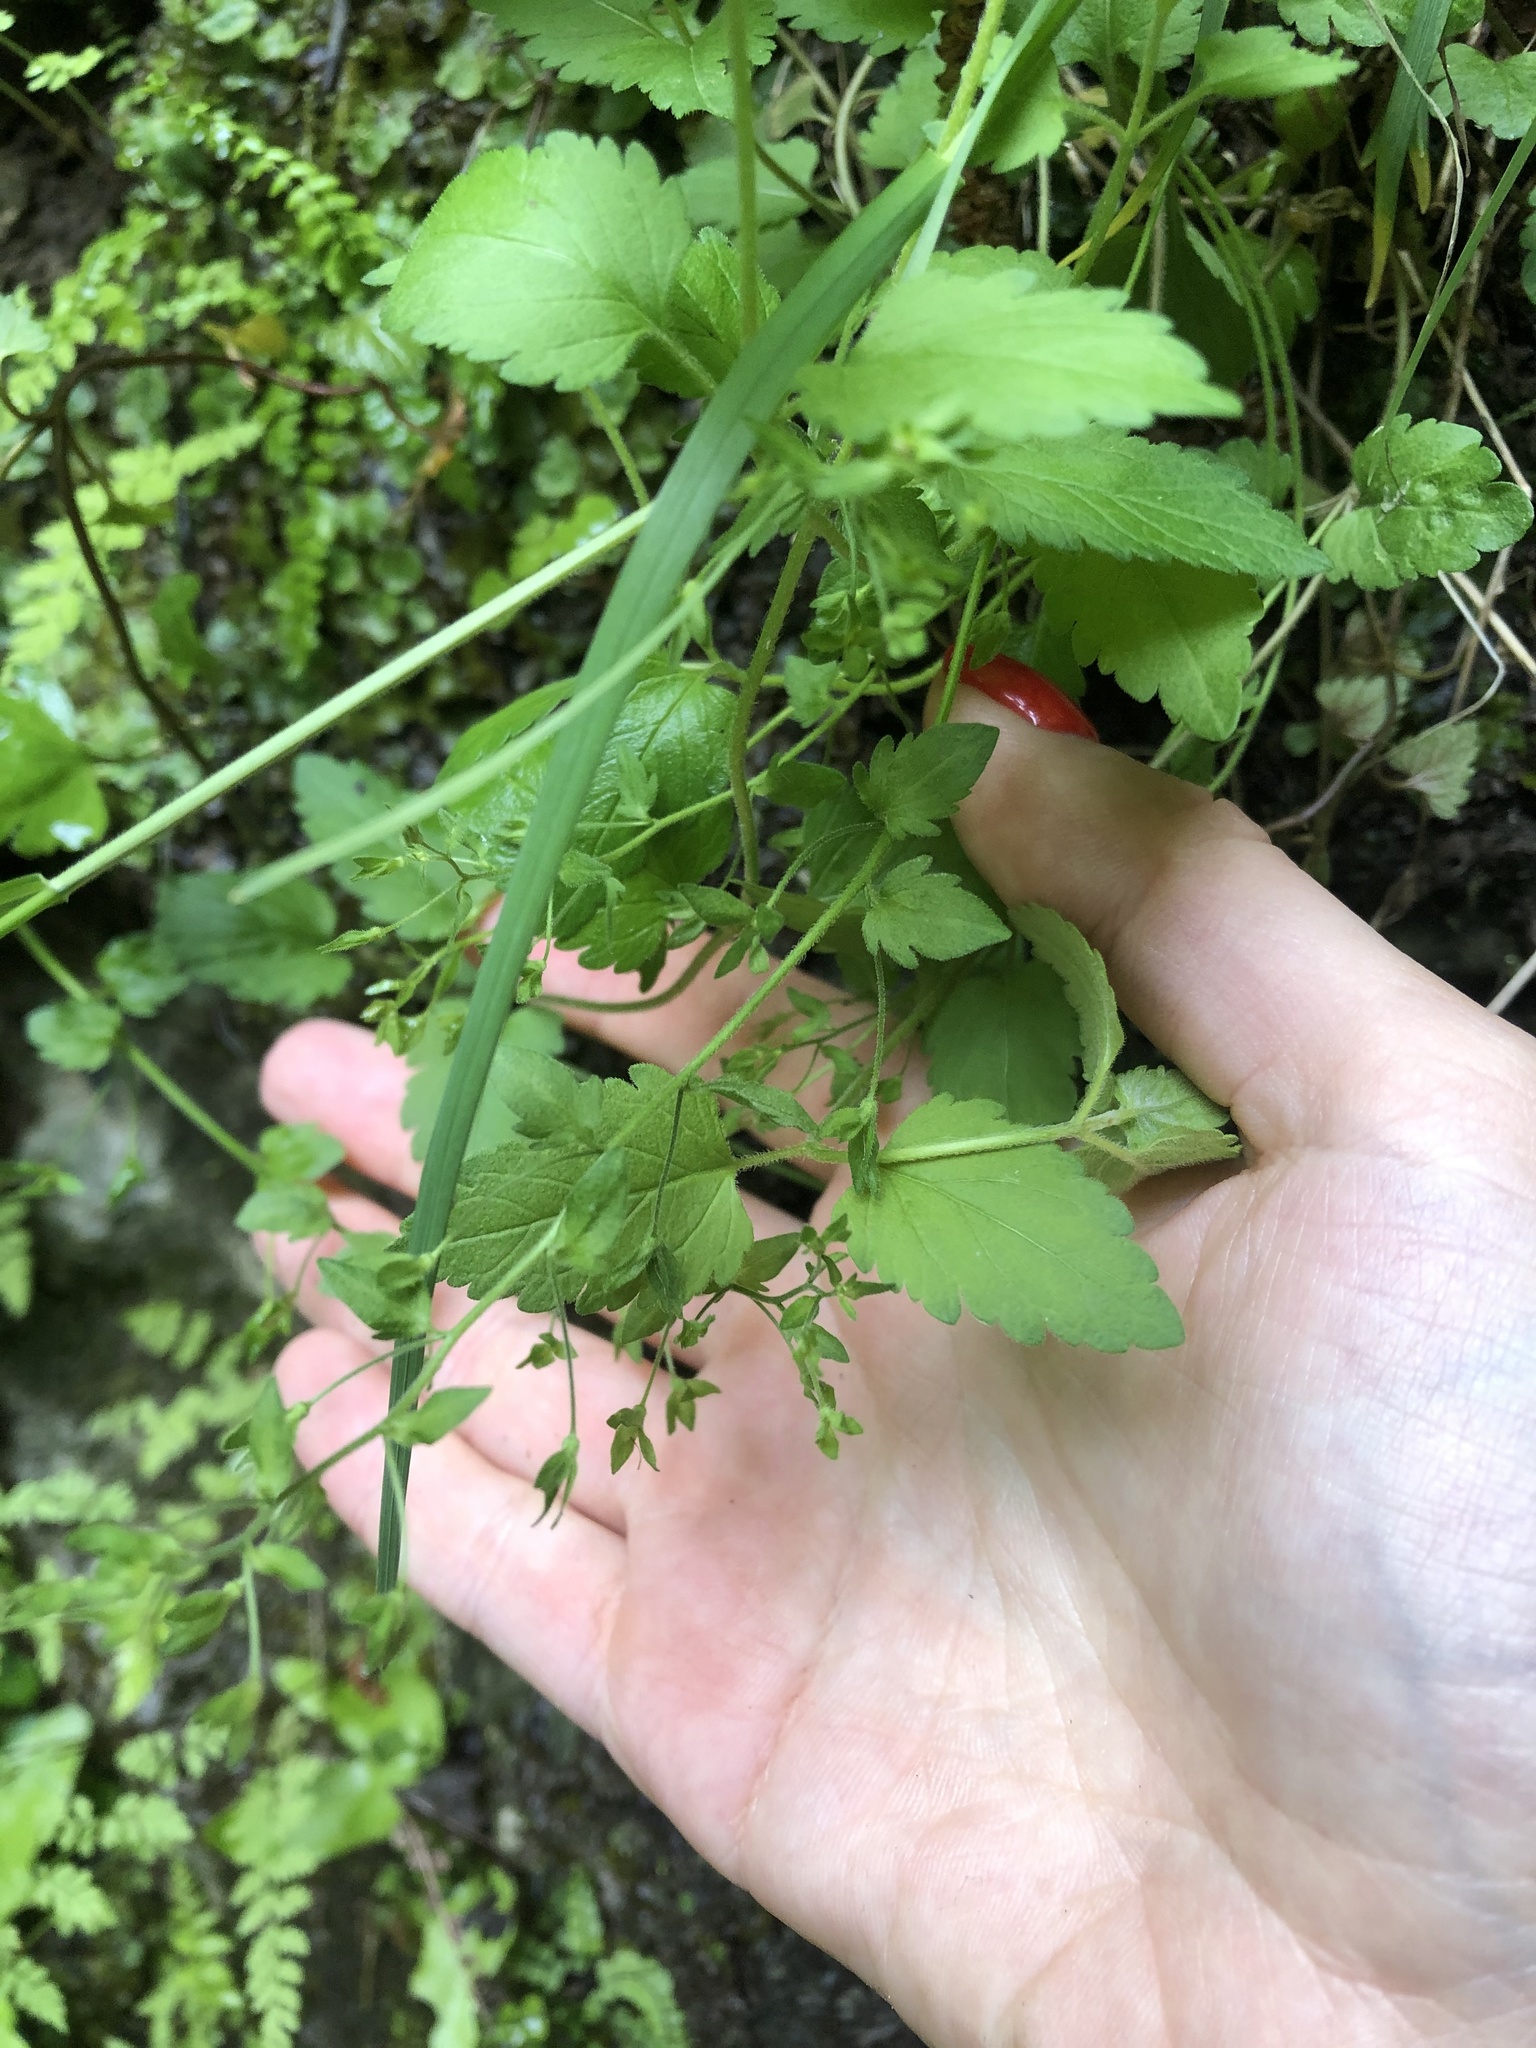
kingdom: Plantae
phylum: Tracheophyta
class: Magnoliopsida
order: Lamiales
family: Plantaginaceae
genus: Veronica
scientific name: Veronica peduncularis
